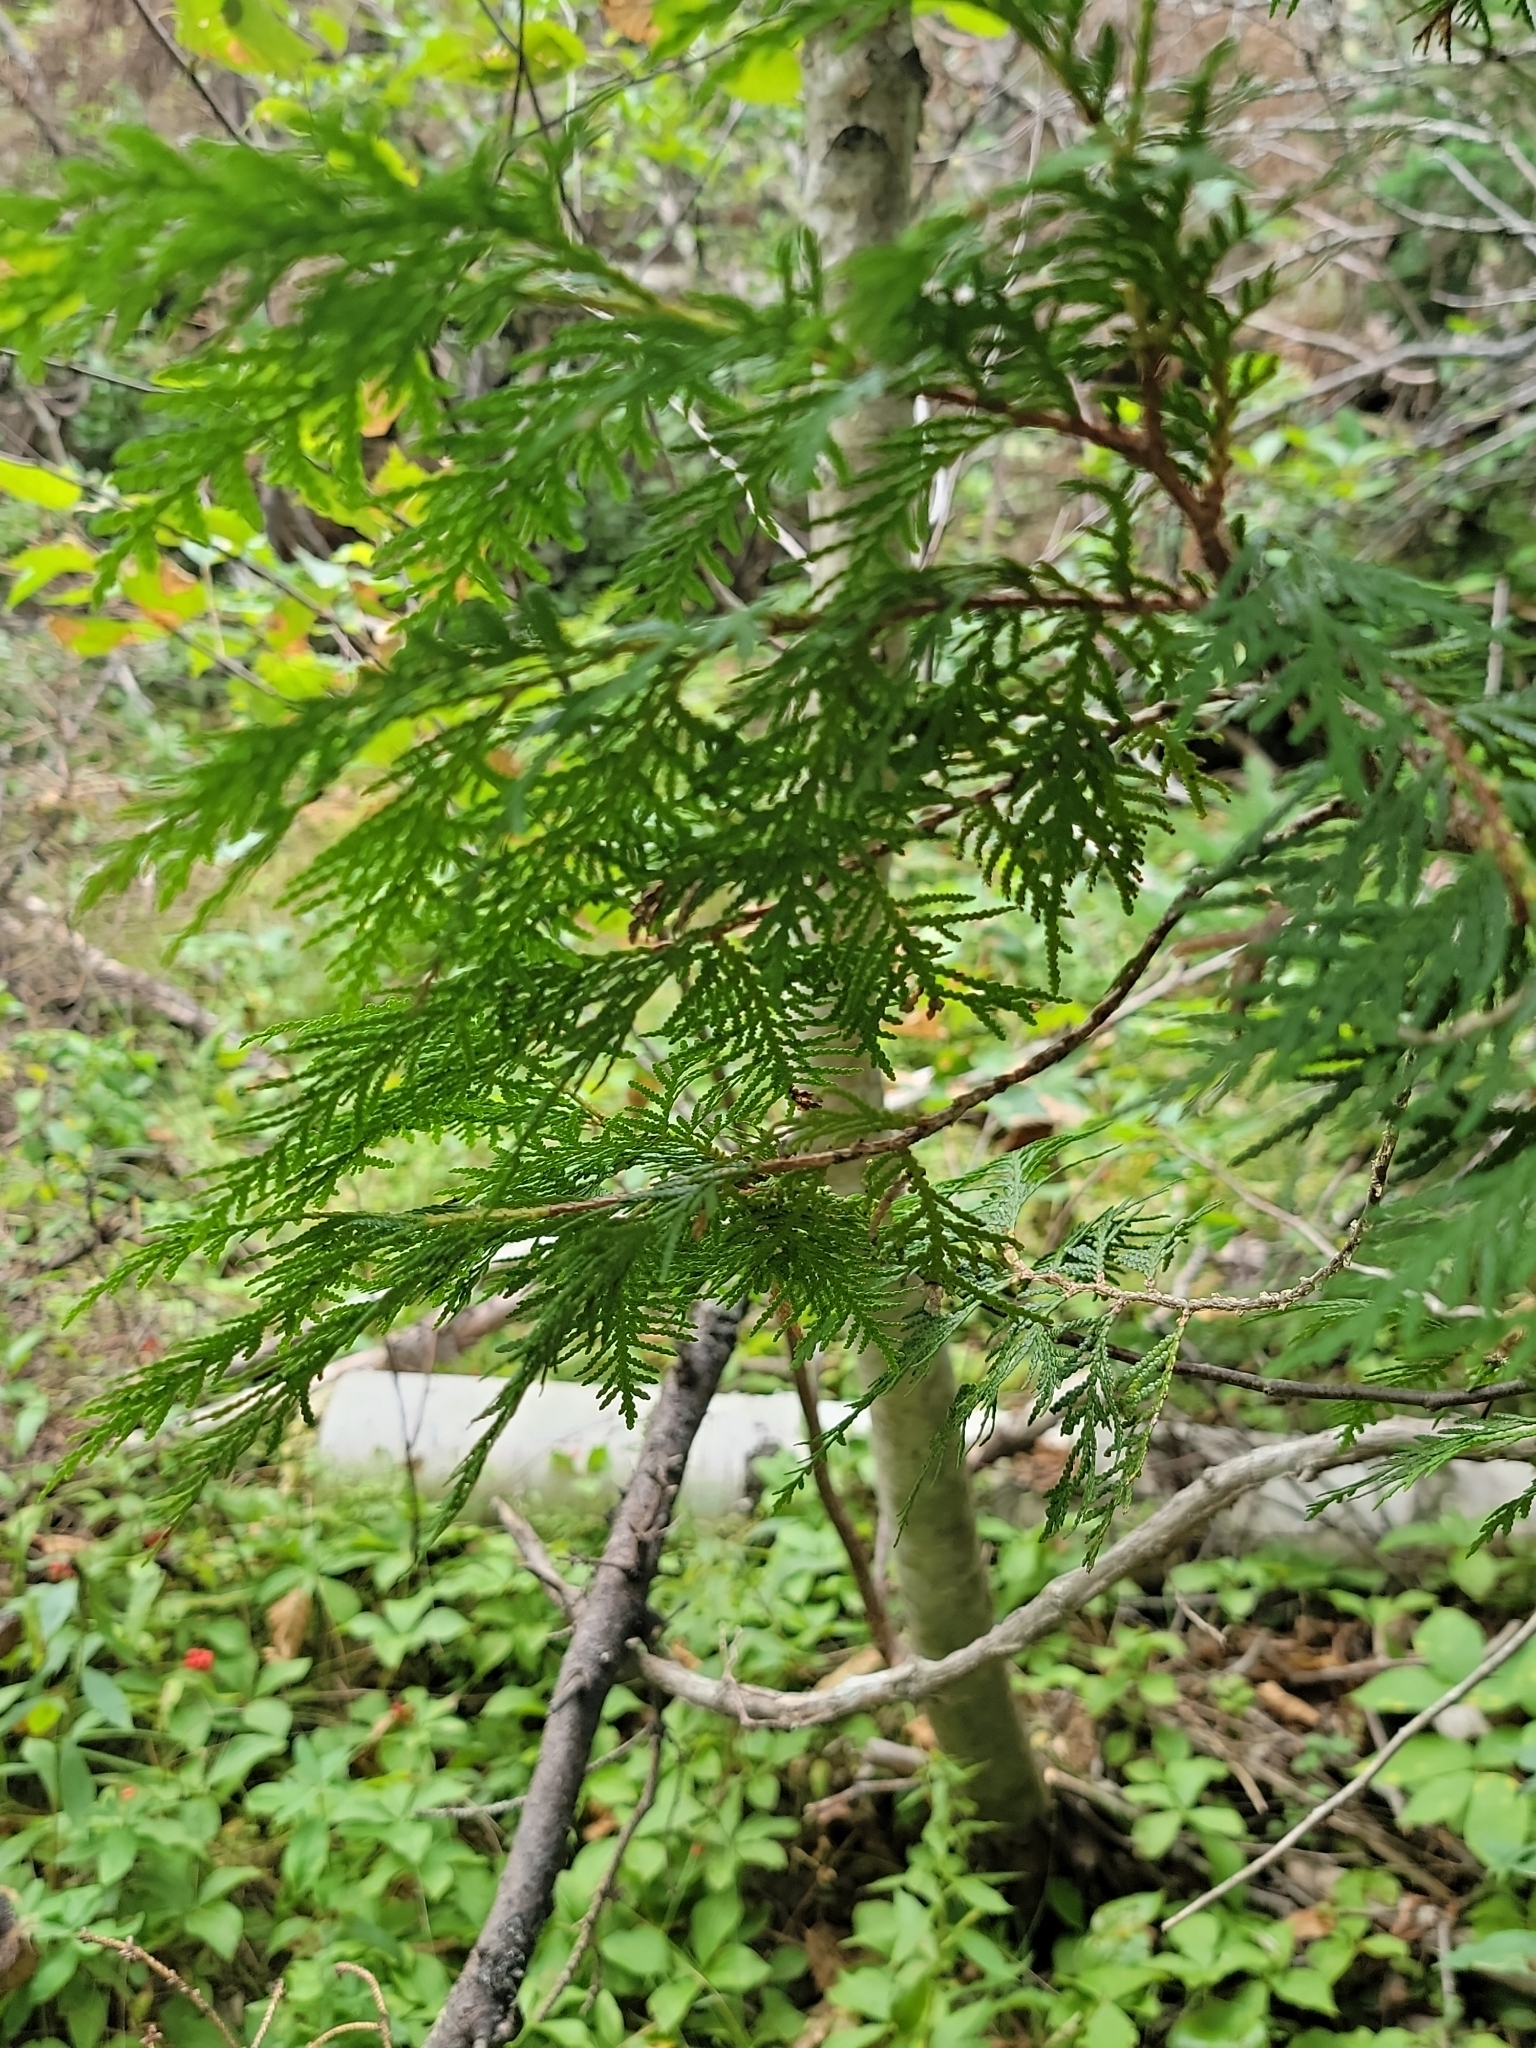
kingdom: Plantae
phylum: Tracheophyta
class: Pinopsida
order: Pinales
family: Cupressaceae
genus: Thuja
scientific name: Thuja occidentalis
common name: Northern white-cedar
